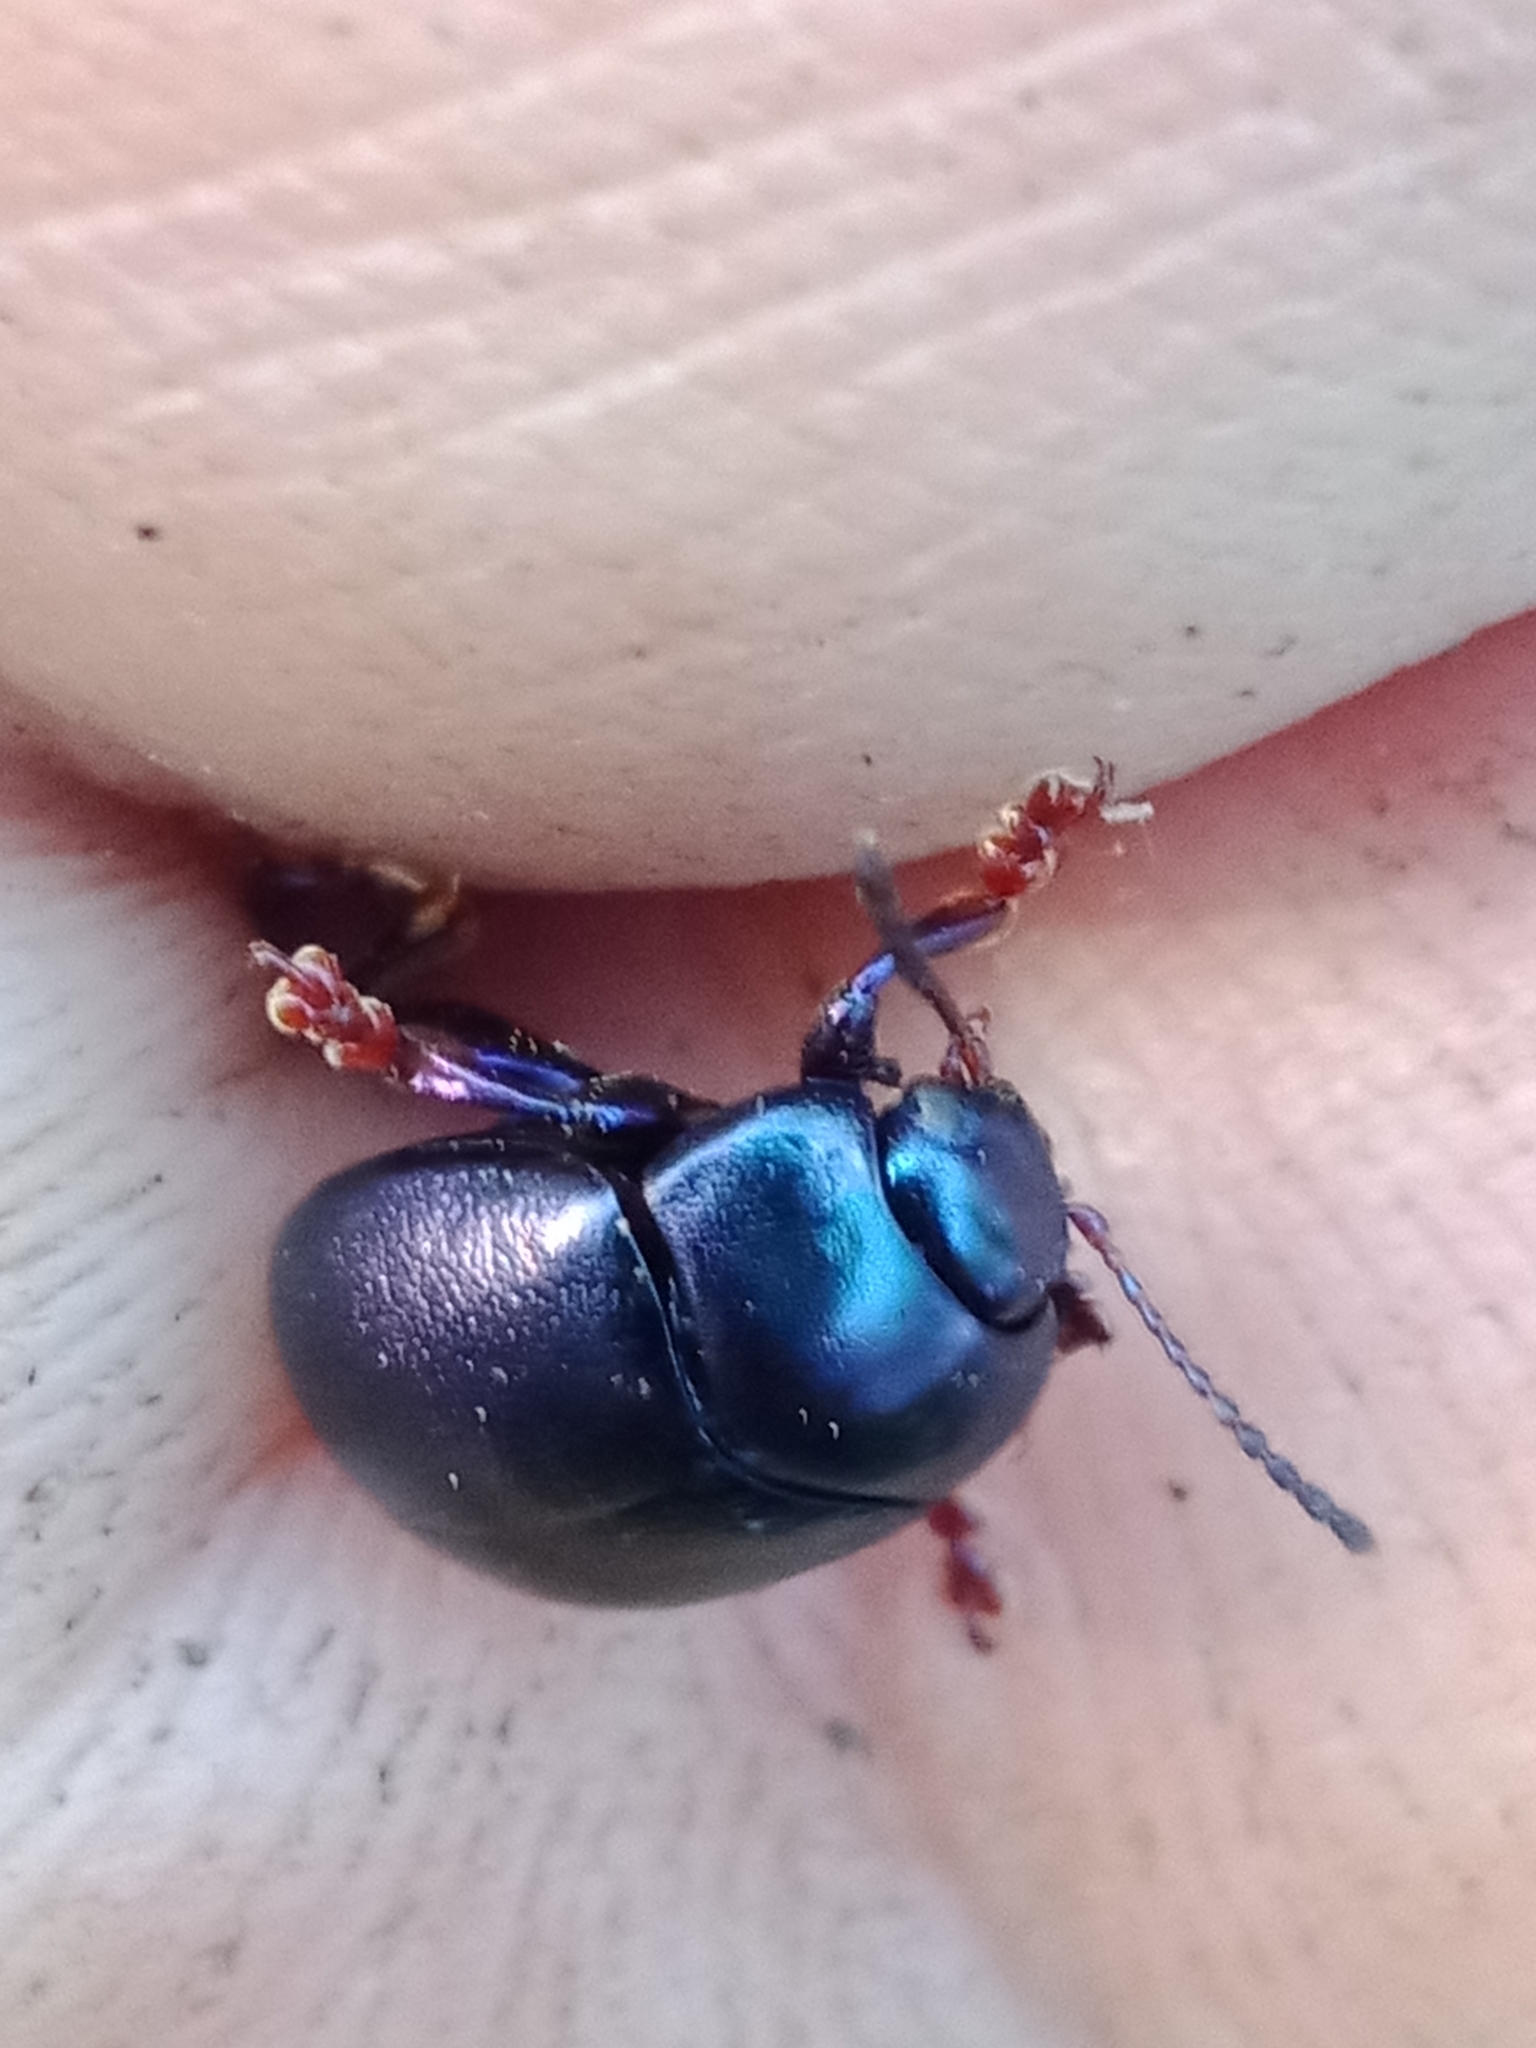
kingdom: Animalia
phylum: Arthropoda
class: Insecta
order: Coleoptera
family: Chrysomelidae
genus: Chrysolina
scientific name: Chrysolina sturmi
